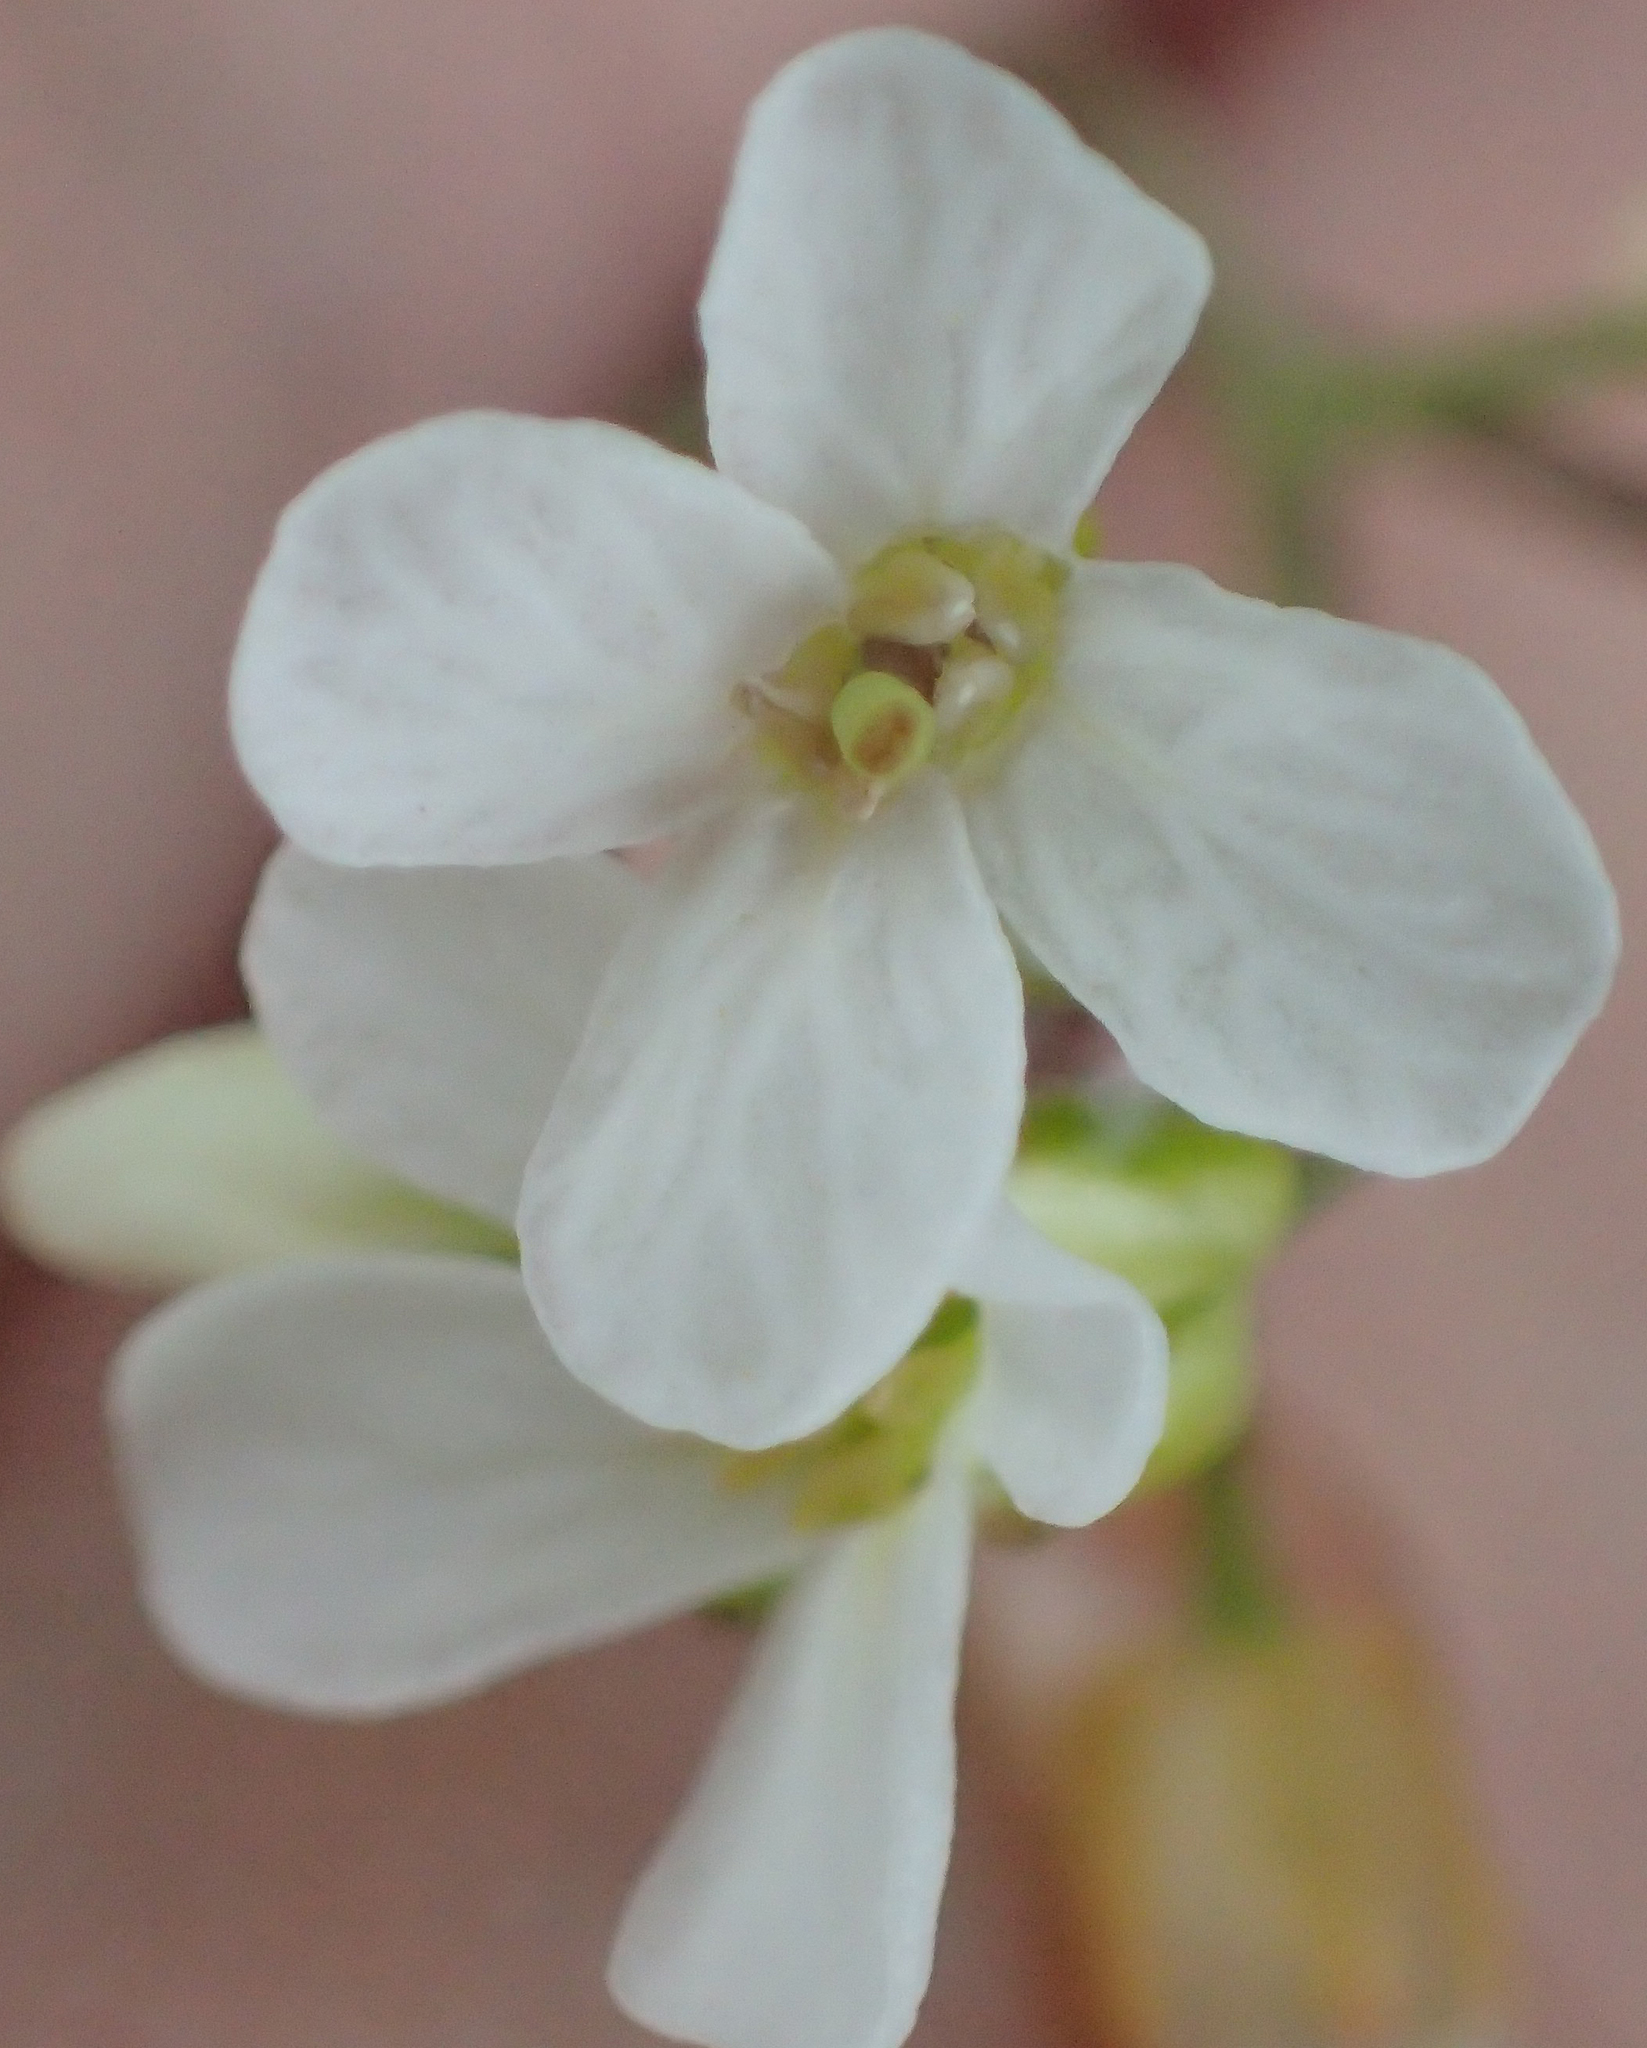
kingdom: Plantae
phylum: Tracheophyta
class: Magnoliopsida
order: Brassicales
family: Brassicaceae
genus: Arabidopsis
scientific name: Arabidopsis lyrata
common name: Lyrate rockcress
